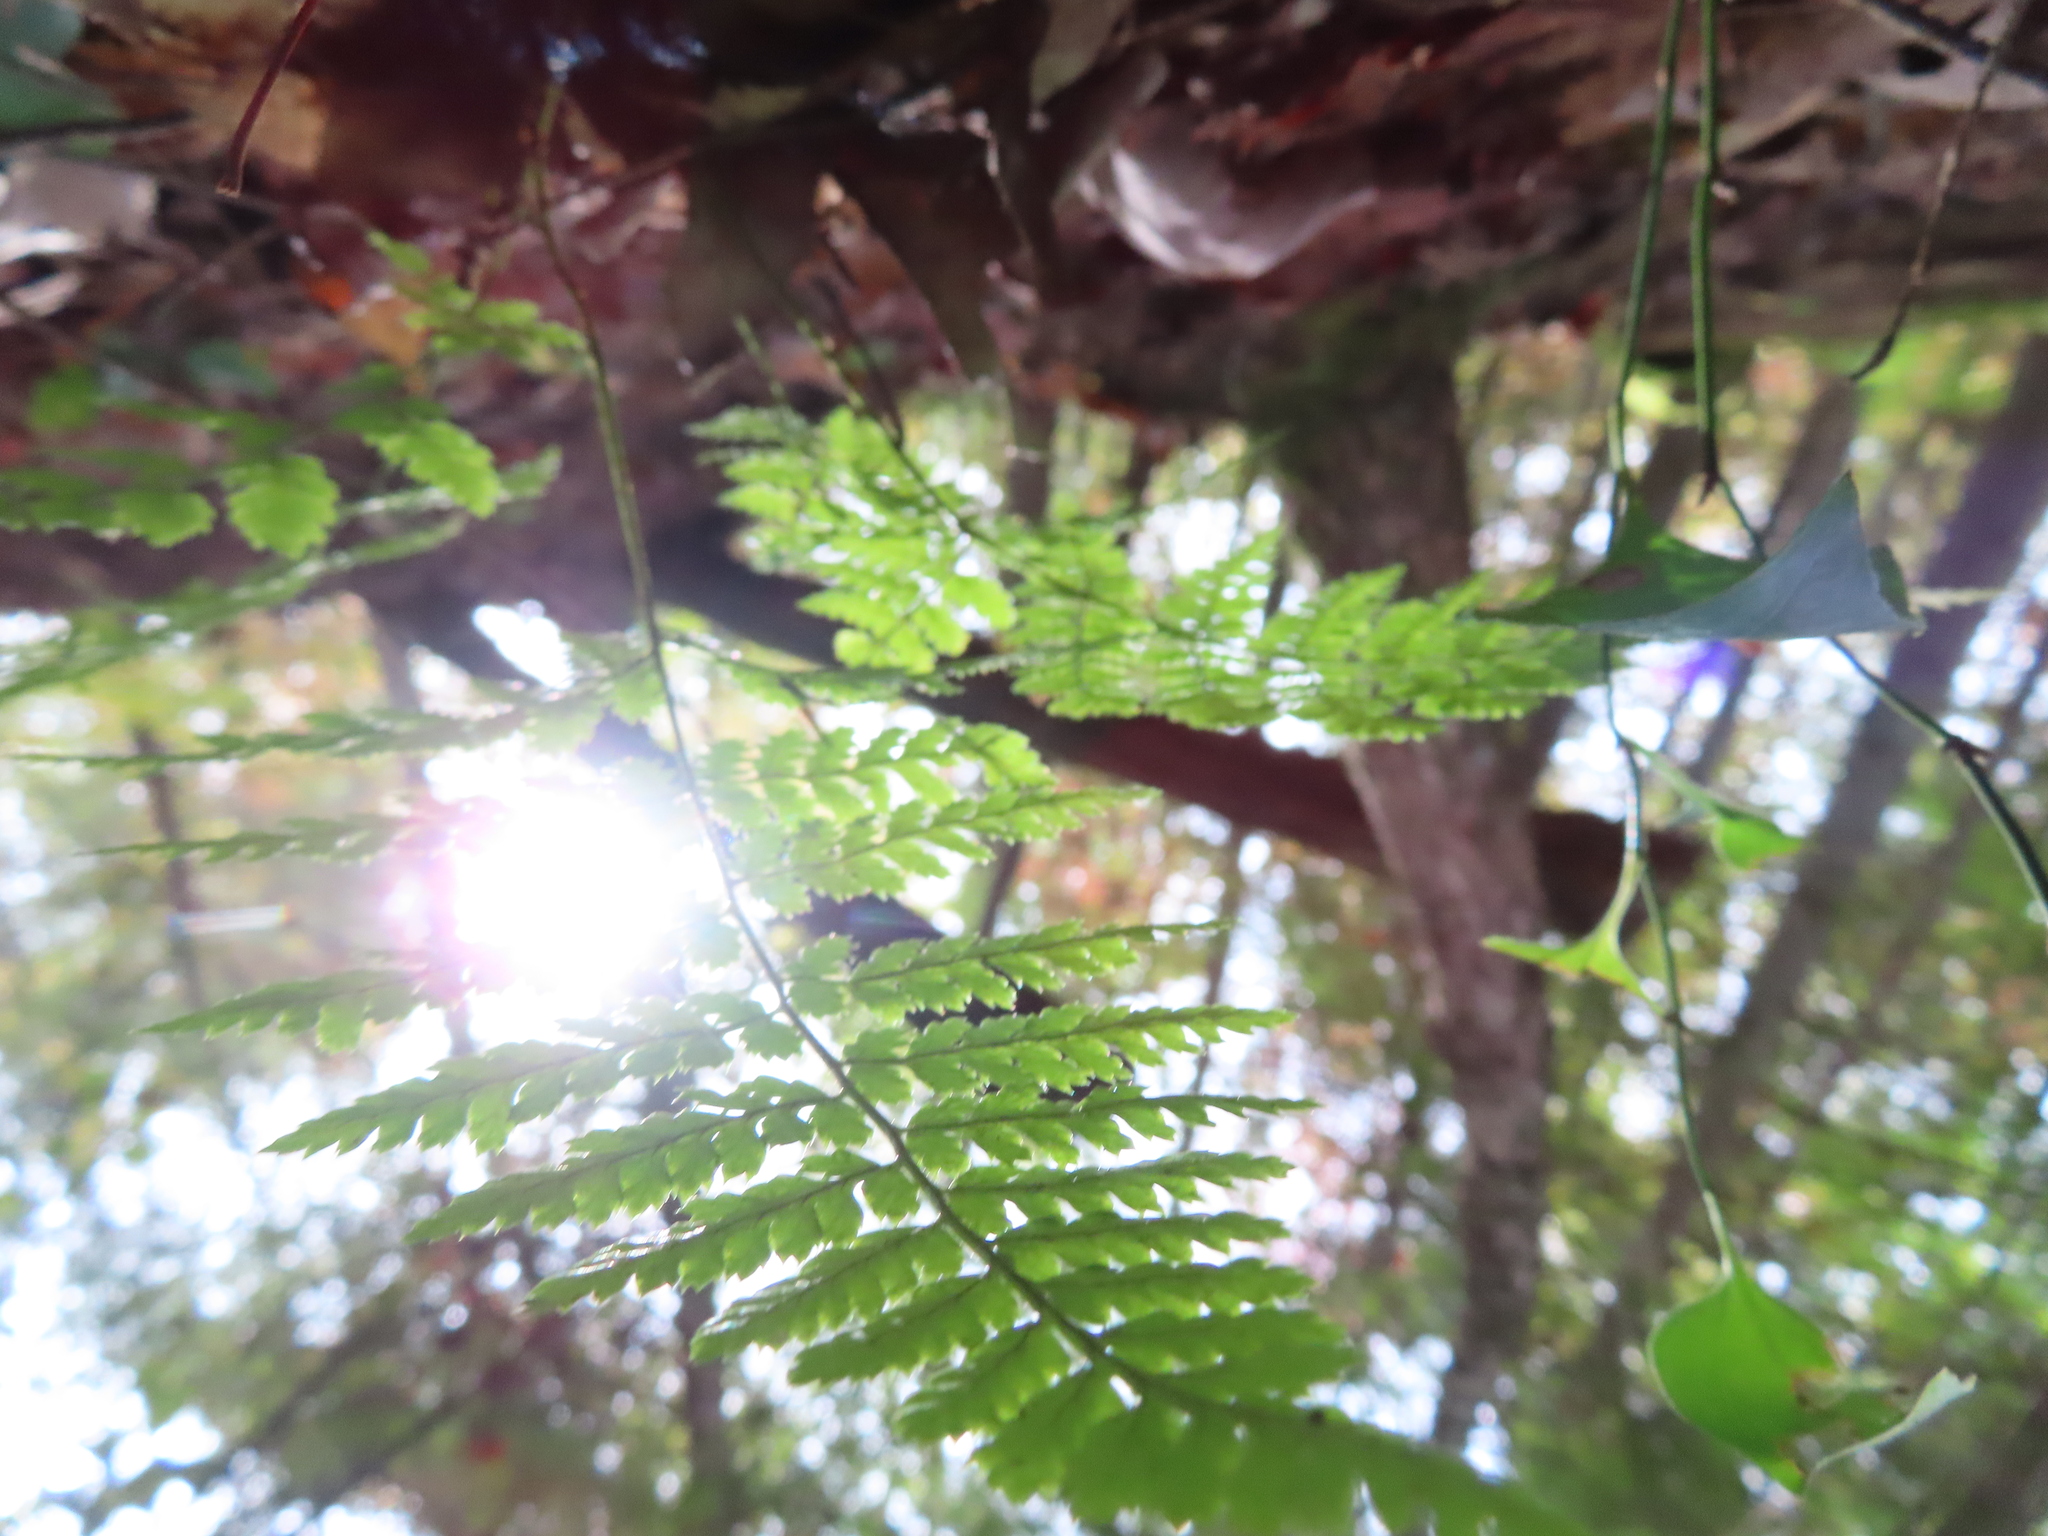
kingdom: Plantae
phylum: Tracheophyta
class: Polypodiopsida
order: Polypodiales
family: Dryopteridaceae
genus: Dryopteris
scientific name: Dryopteris intermedia
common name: Evergreen wood fern
